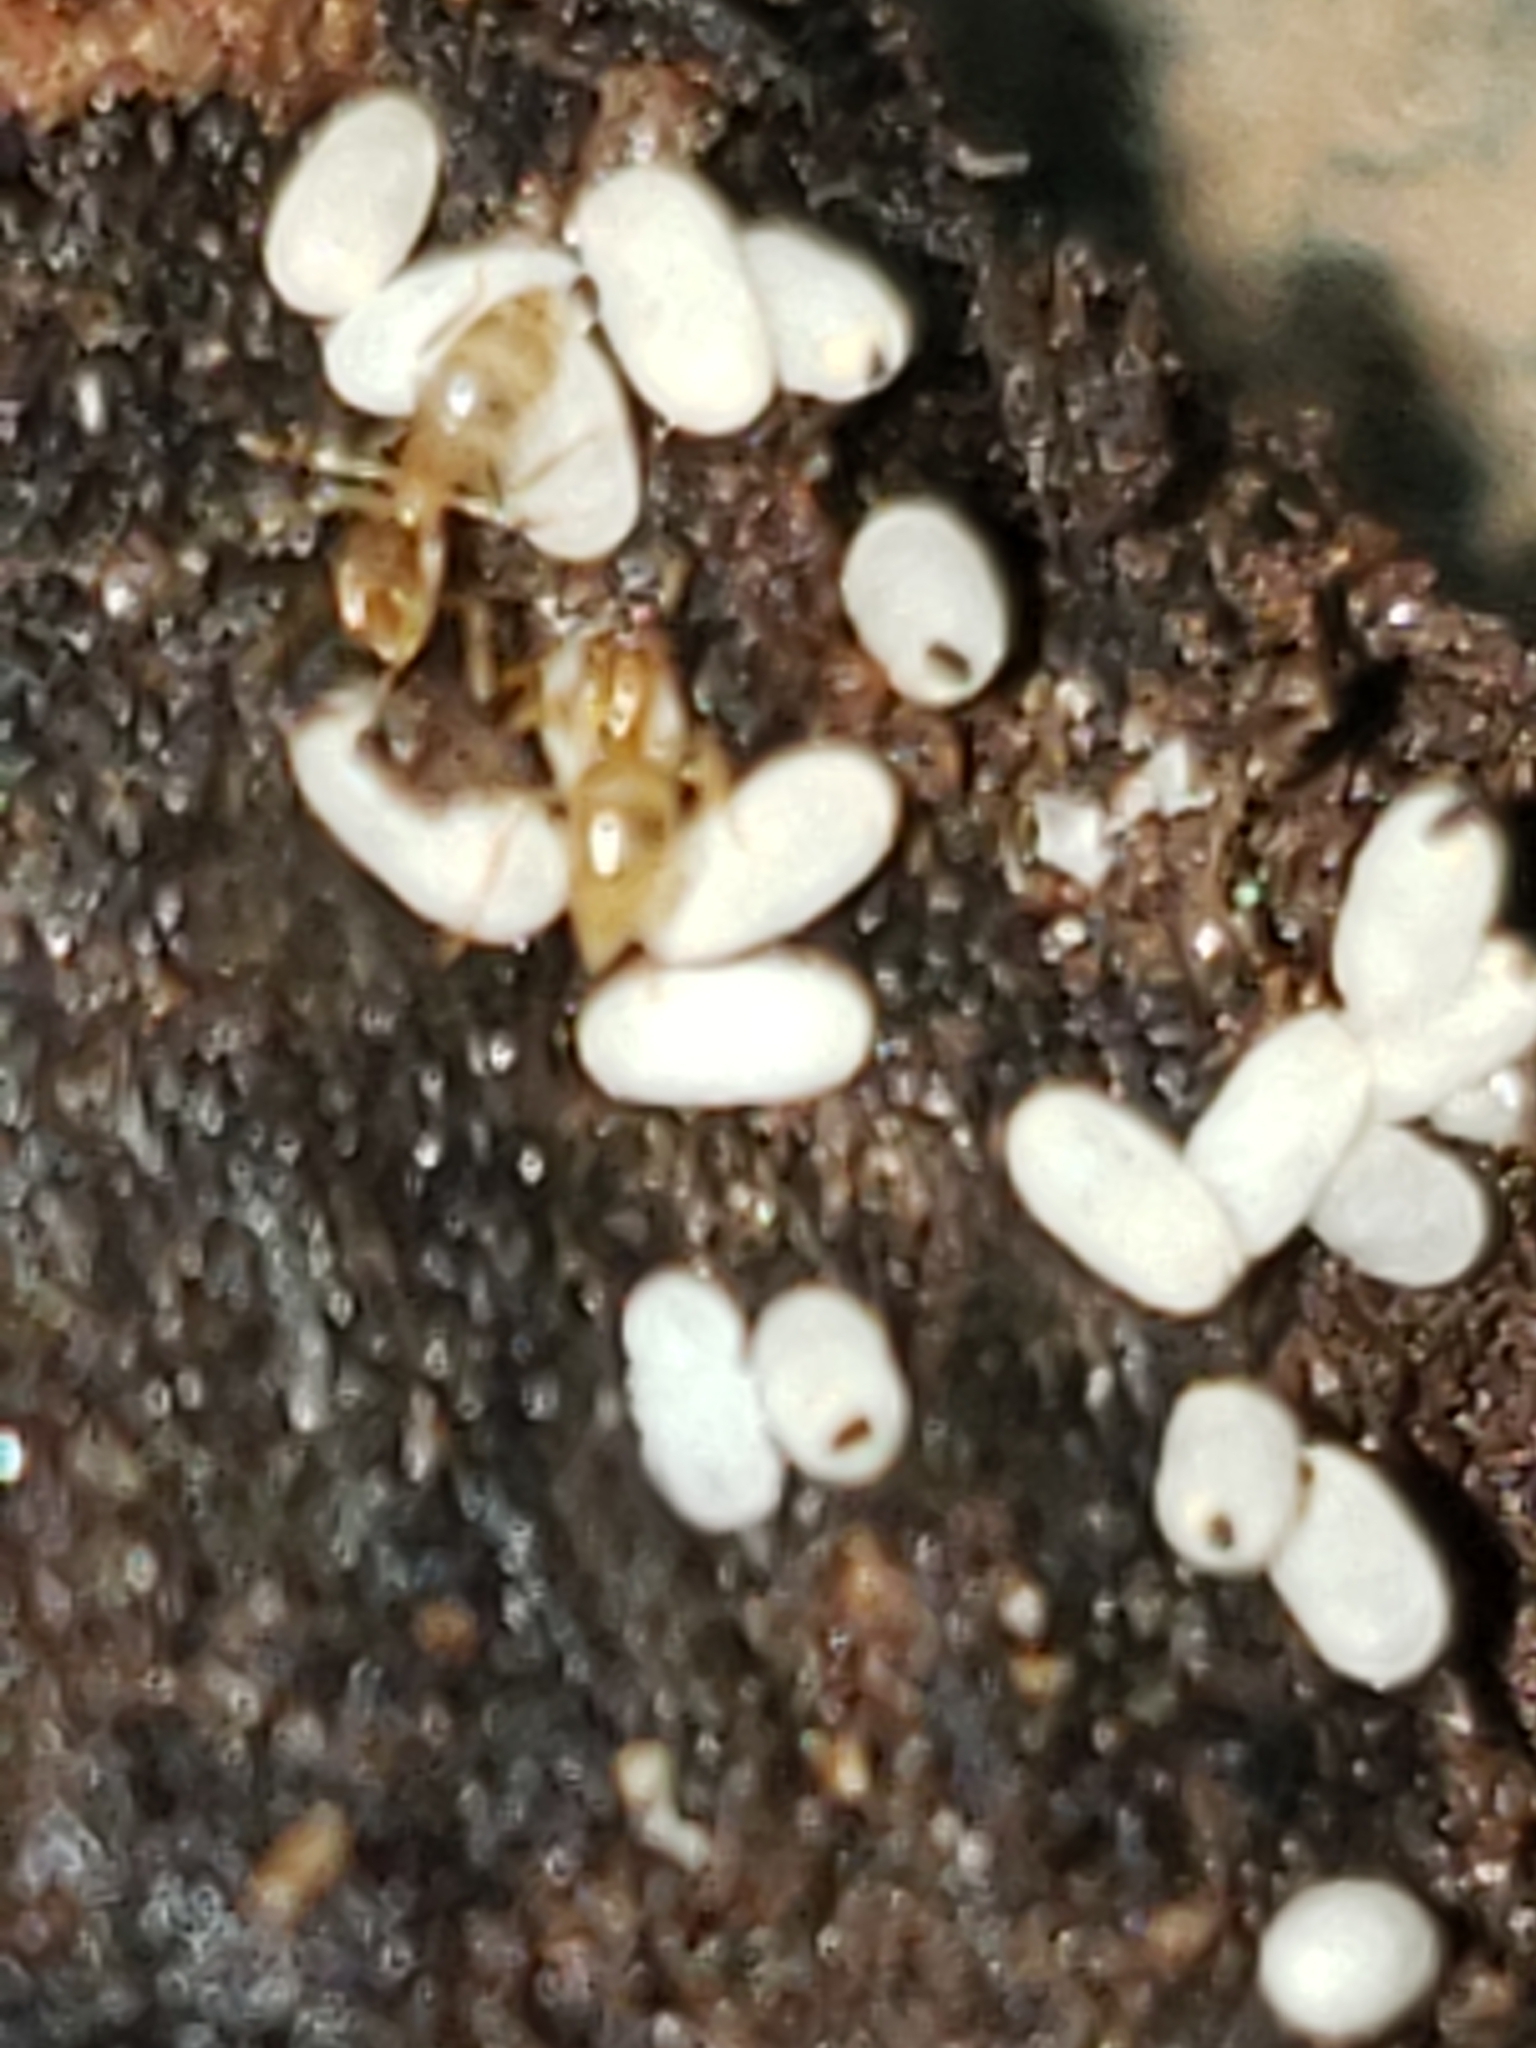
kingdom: Animalia
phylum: Arthropoda
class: Insecta
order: Hymenoptera
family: Formicidae
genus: Brachymyrmex
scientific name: Brachymyrmex depilis
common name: Hairless rover ant
